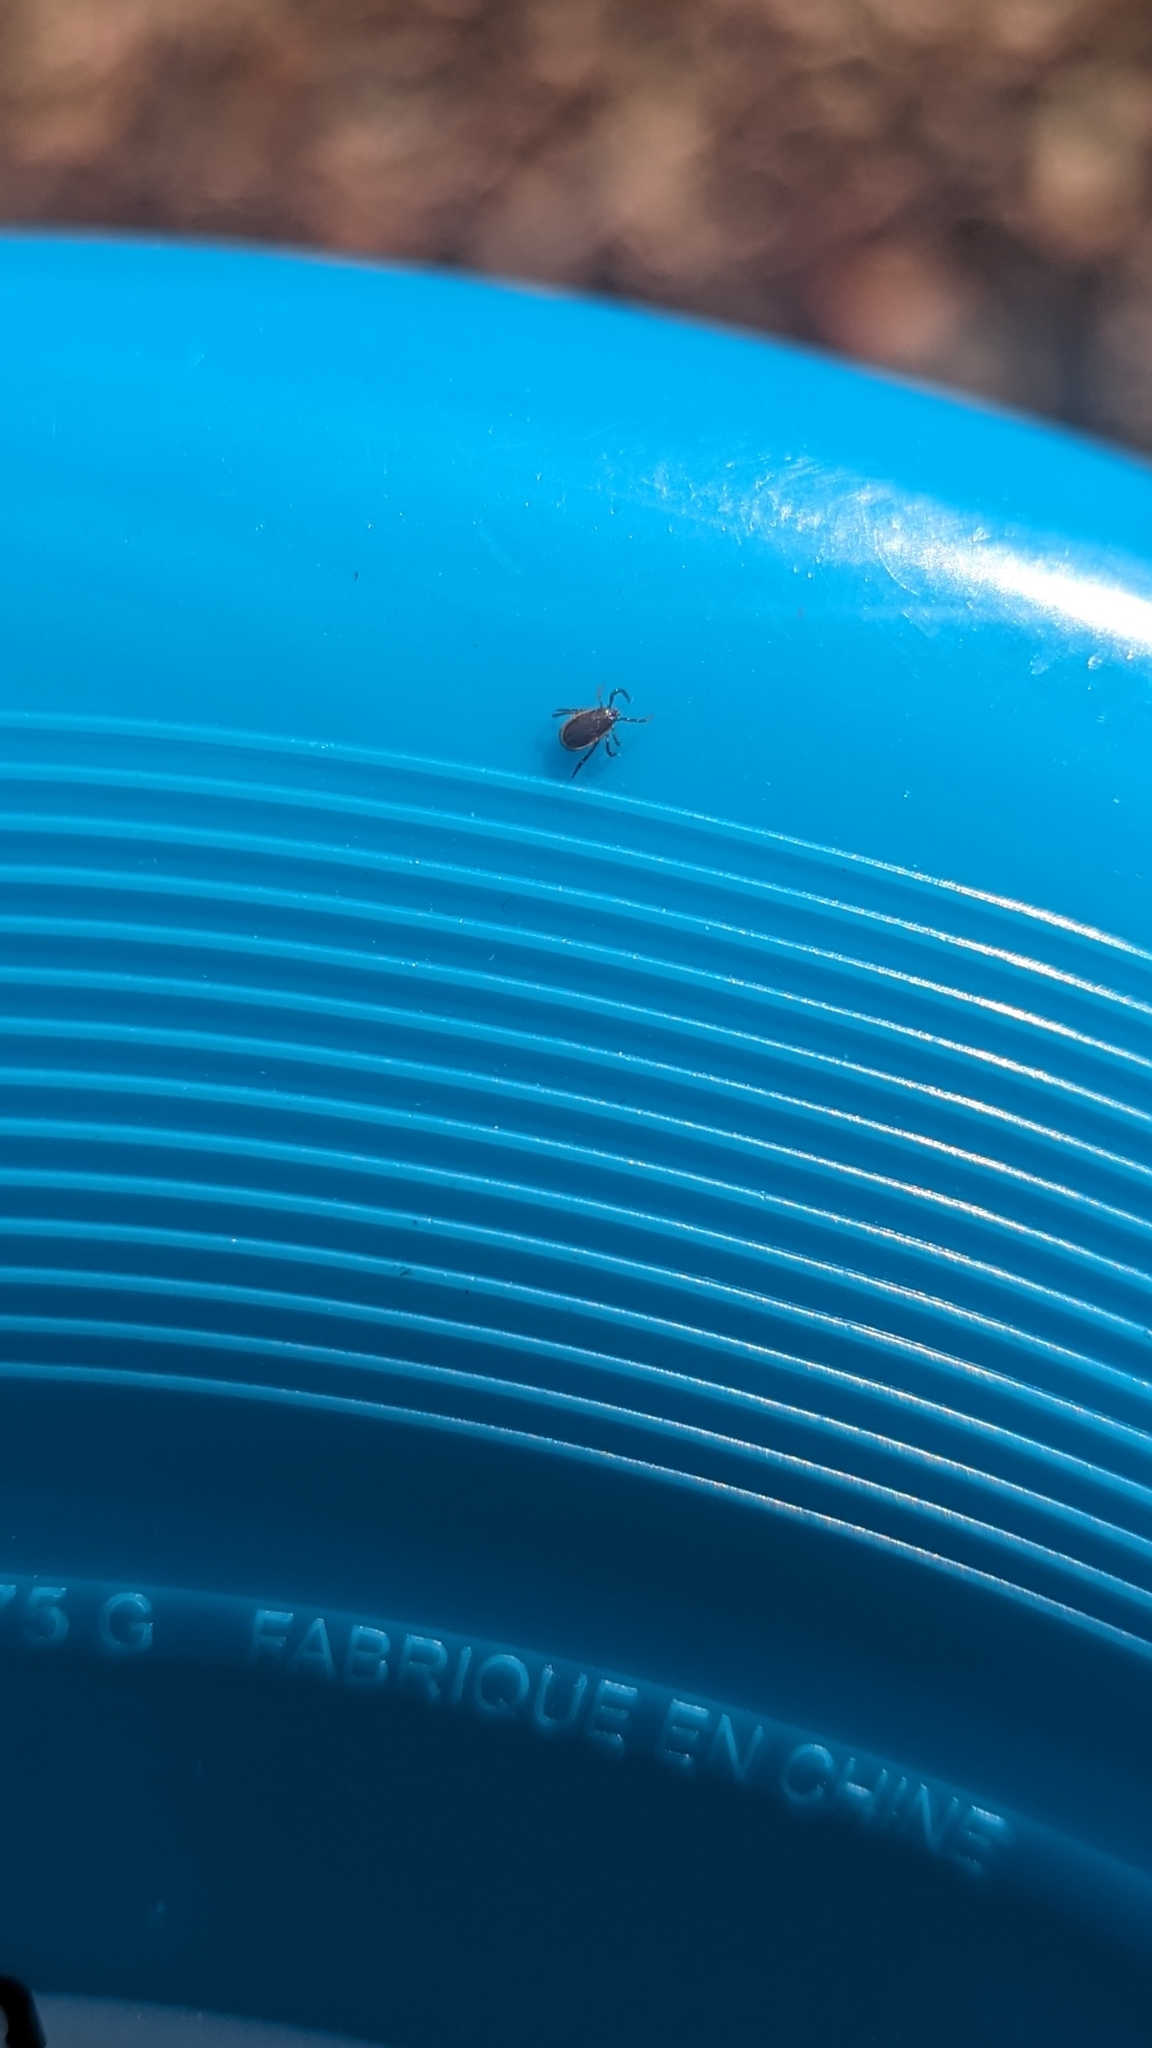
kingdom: Animalia
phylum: Arthropoda
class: Arachnida
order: Ixodida
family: Ixodidae
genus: Ixodes
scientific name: Ixodes scapularis
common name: Black legged tick
